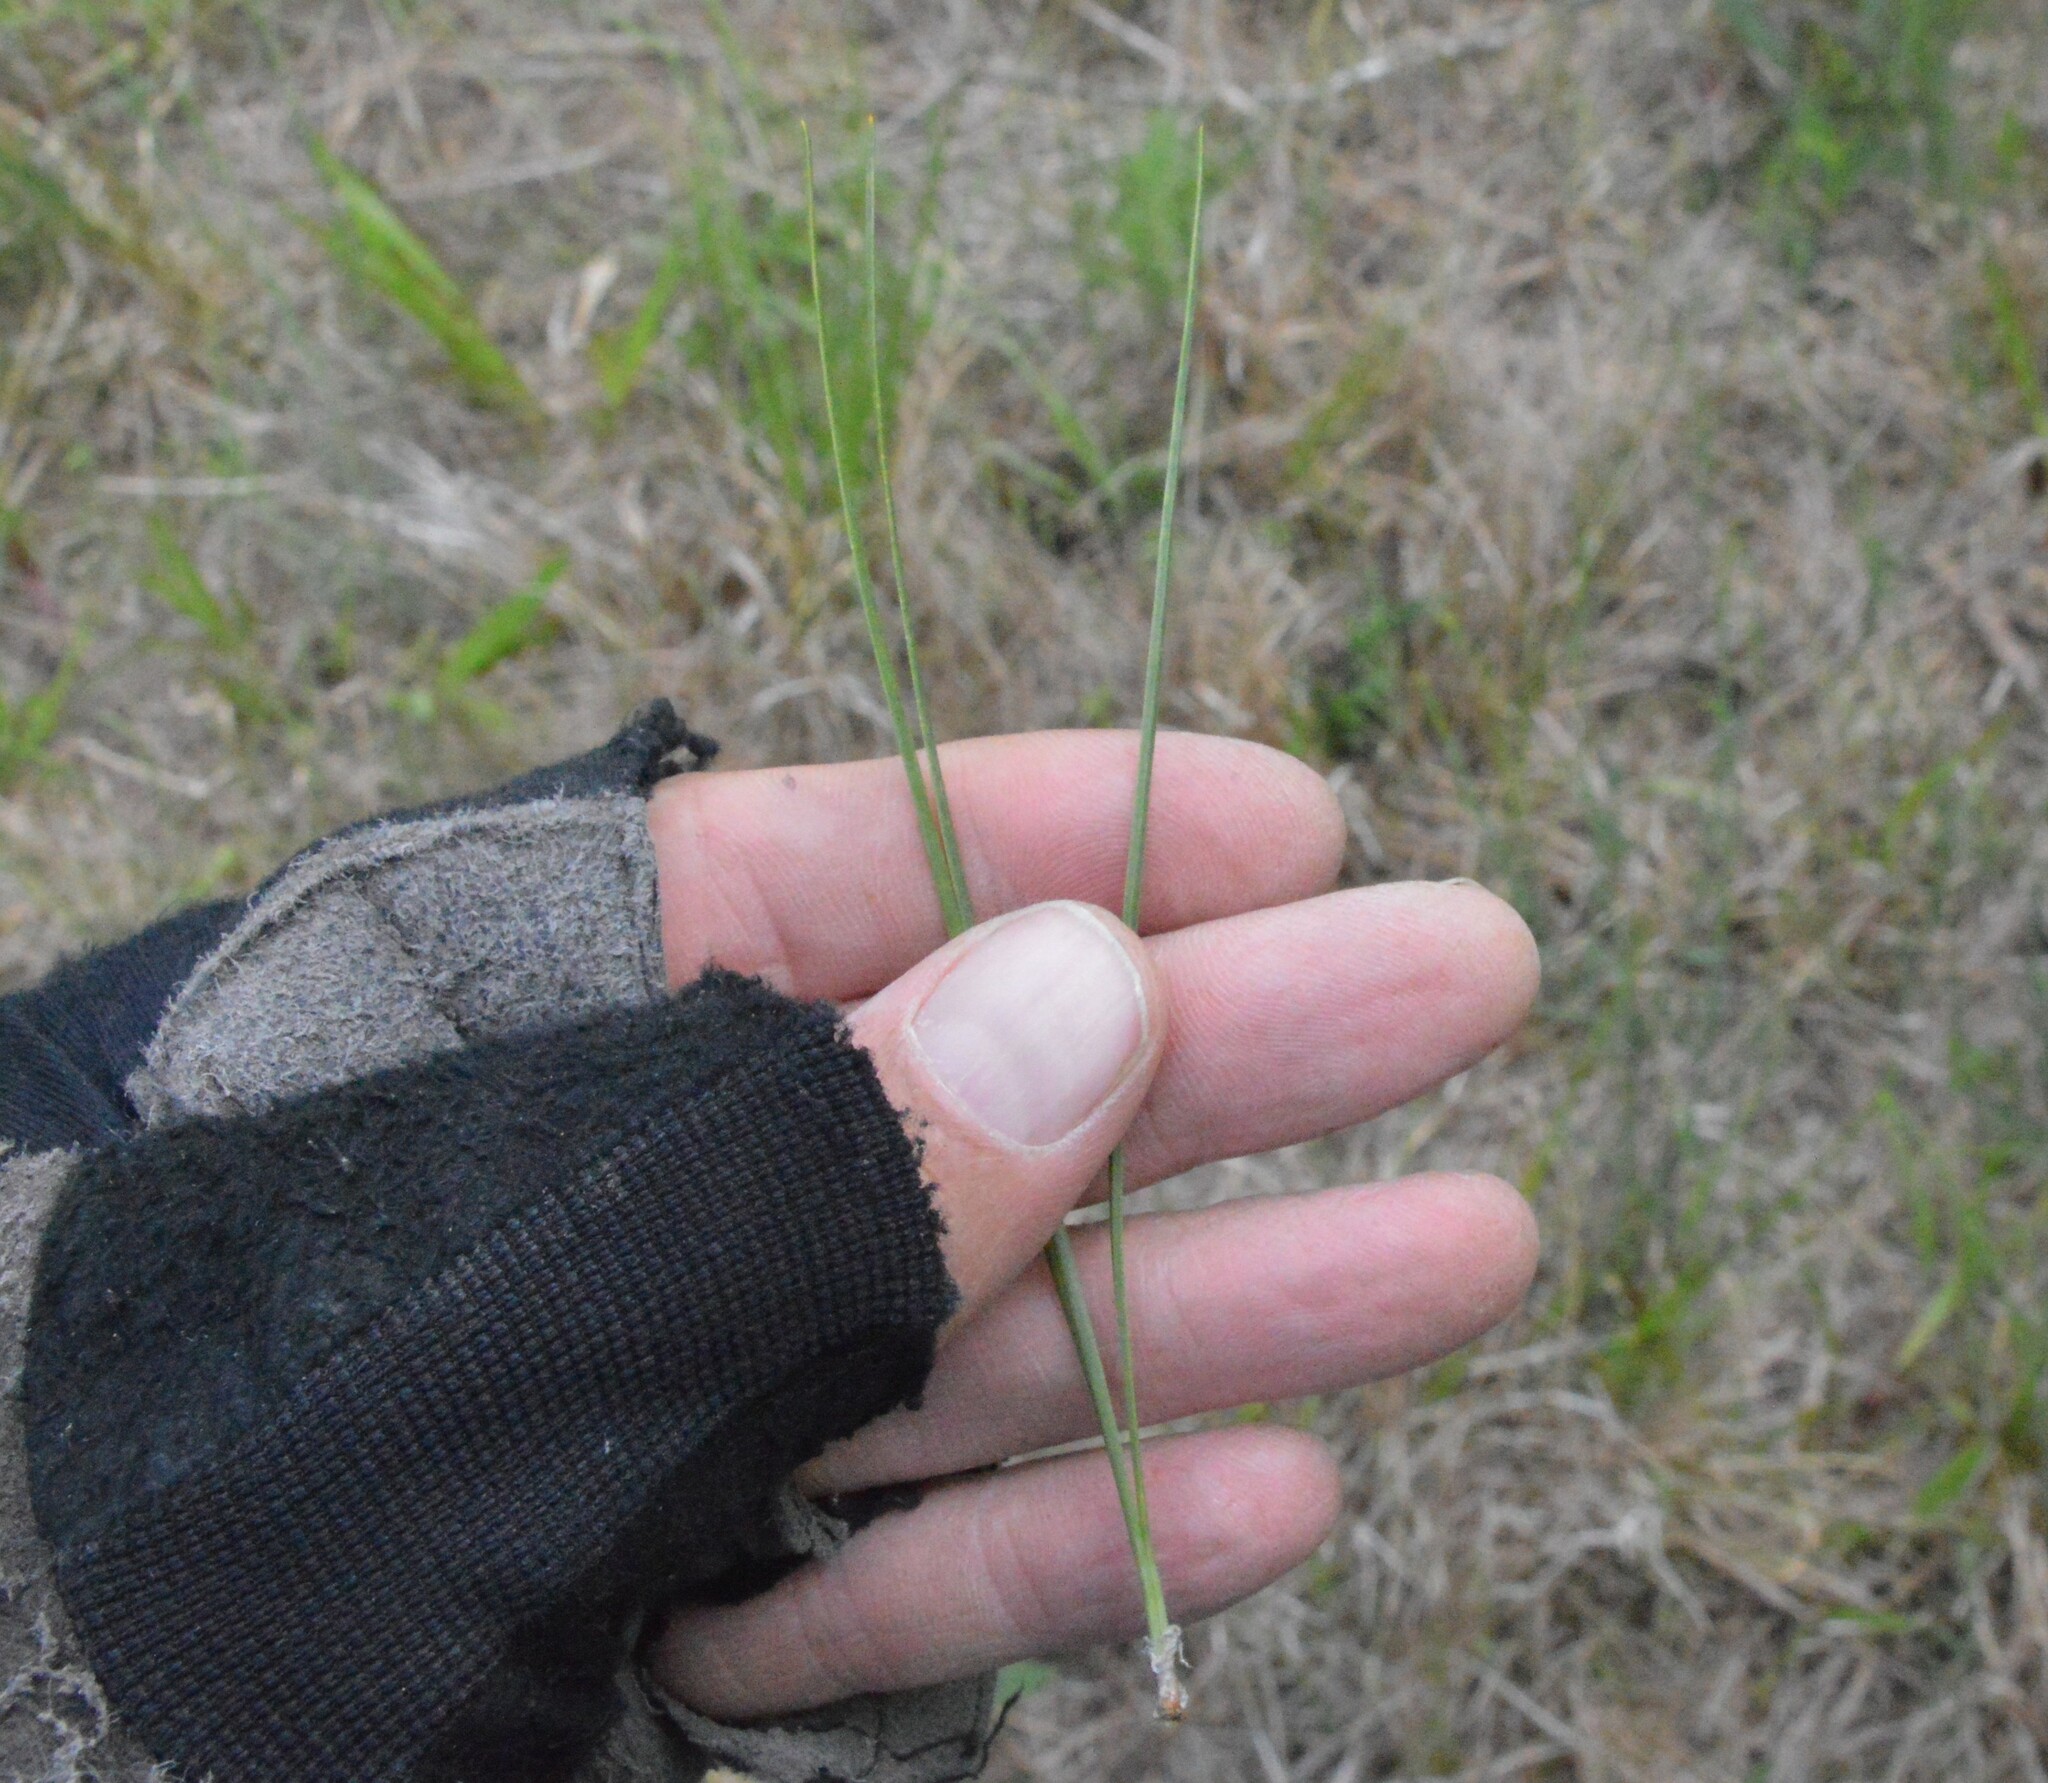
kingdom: Plantae
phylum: Tracheophyta
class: Pinopsida
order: Pinales
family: Pinaceae
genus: Pinus
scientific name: Pinus taeda
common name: Loblolly pine
